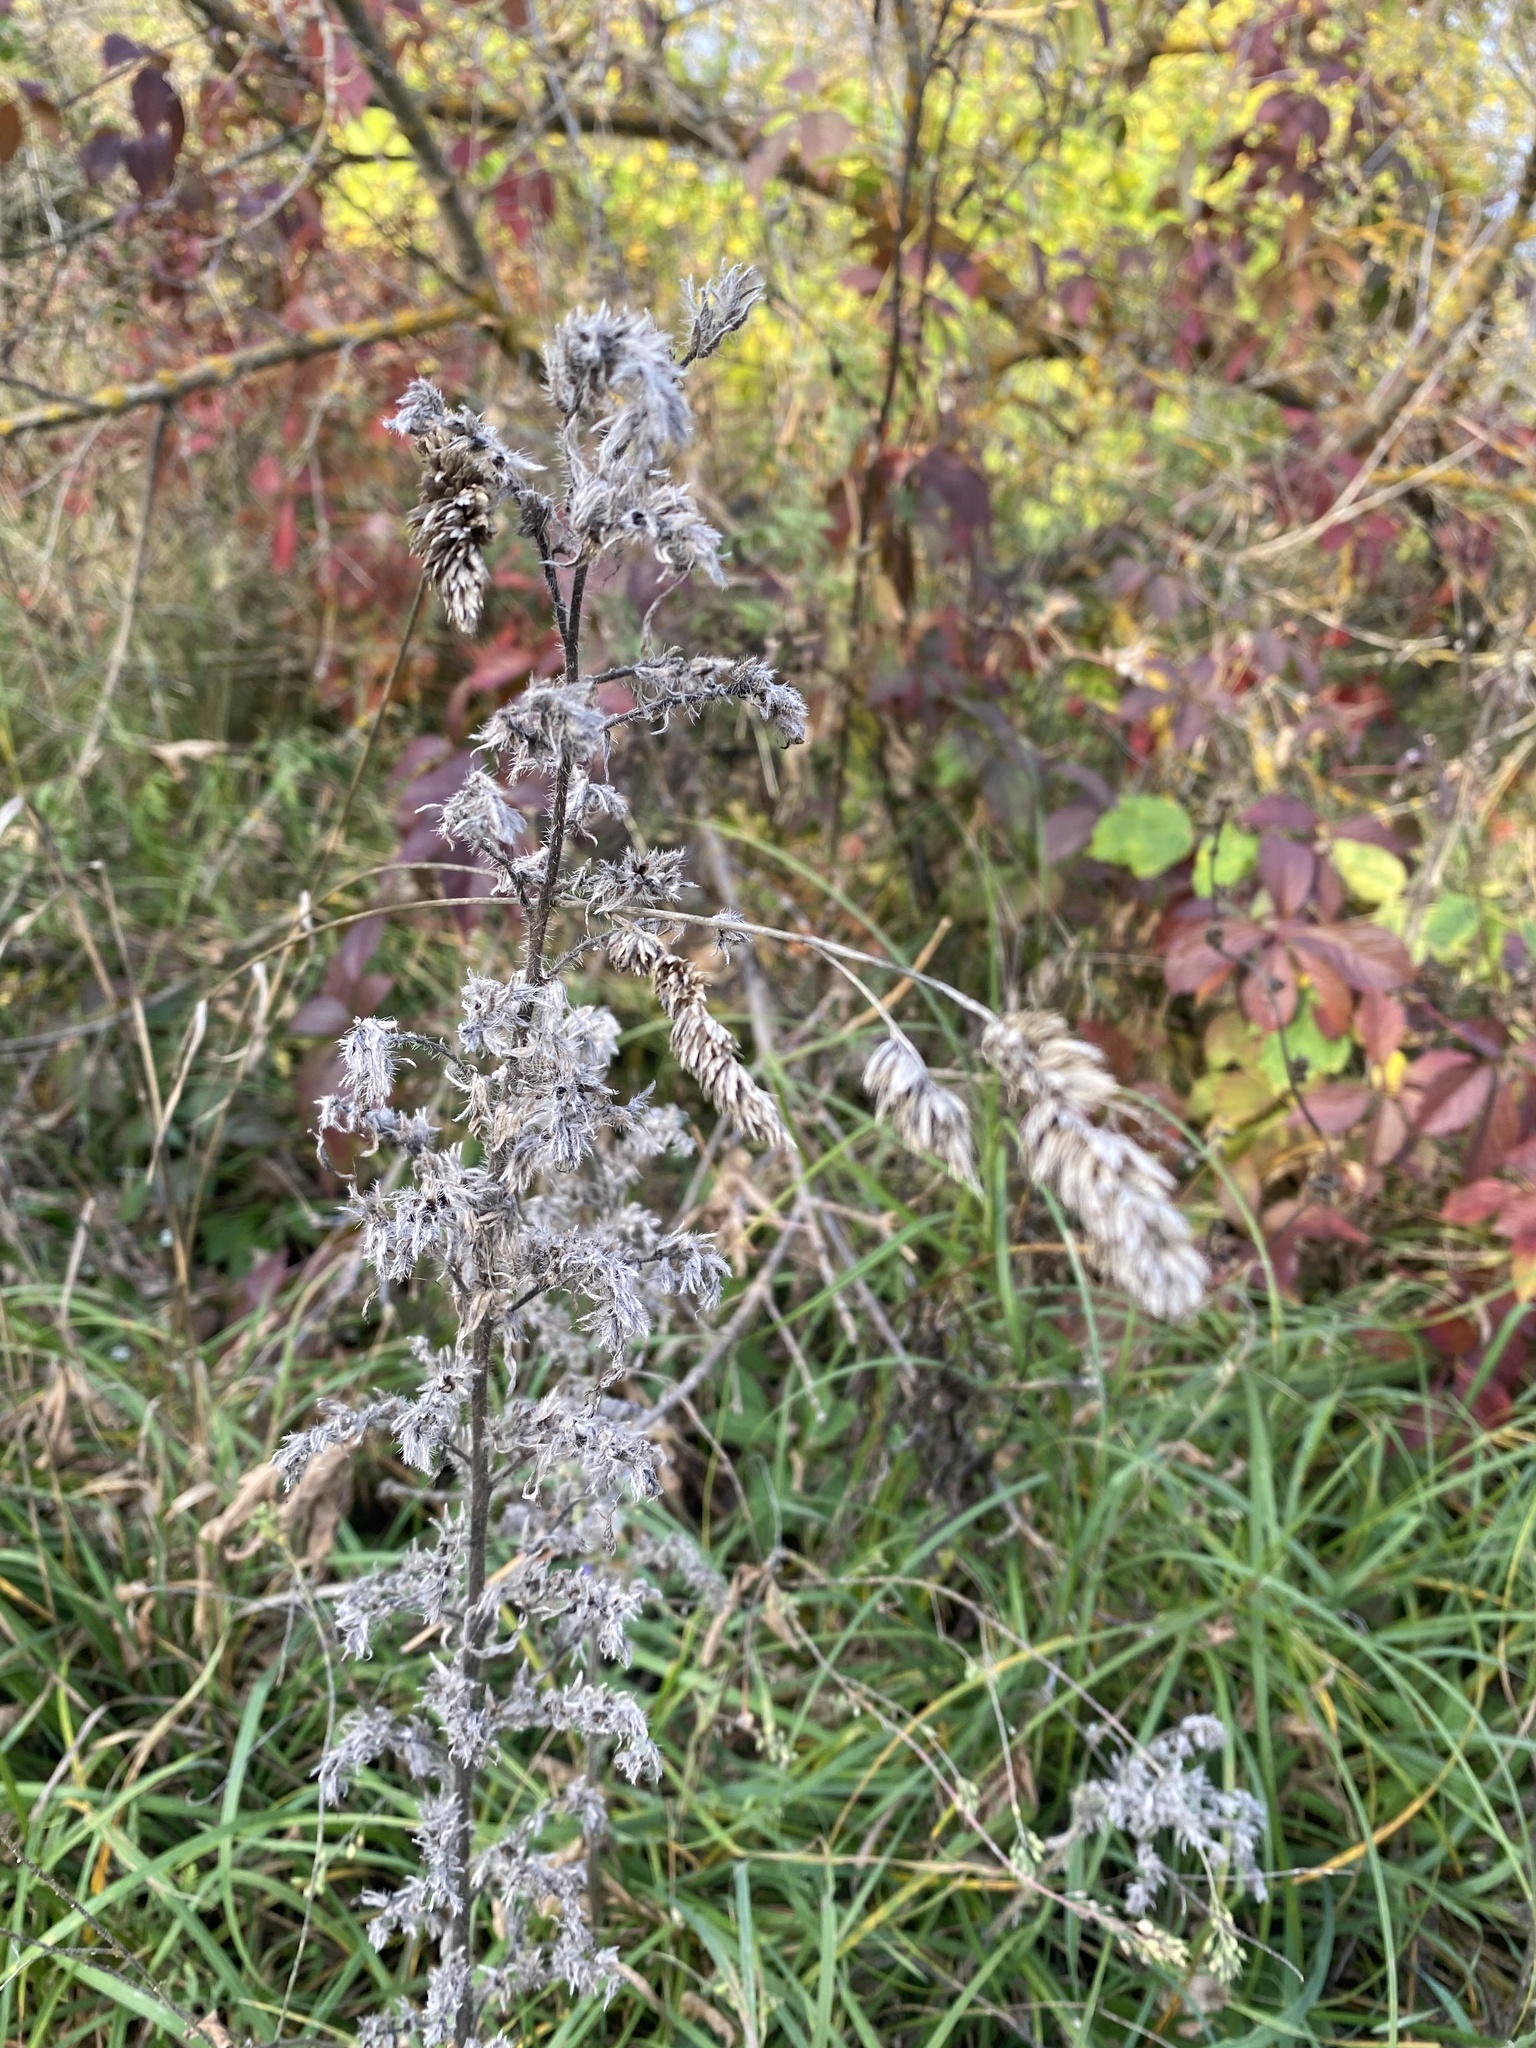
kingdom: Plantae
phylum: Tracheophyta
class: Magnoliopsida
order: Boraginales
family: Boraginaceae
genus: Echium
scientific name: Echium vulgare
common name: Common viper's bugloss
